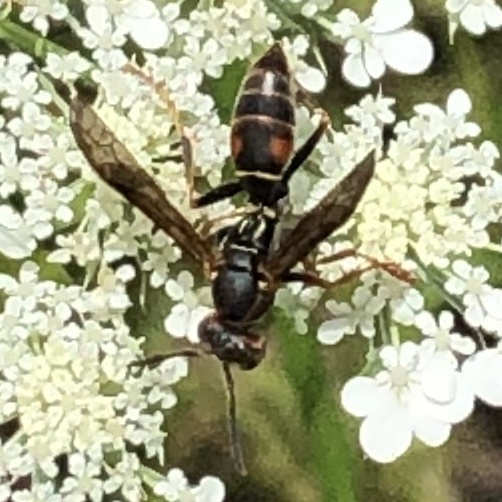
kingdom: Animalia
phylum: Arthropoda
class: Insecta
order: Hymenoptera
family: Eumenidae
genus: Polistes
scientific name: Polistes fuscatus
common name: Dark paper wasp
